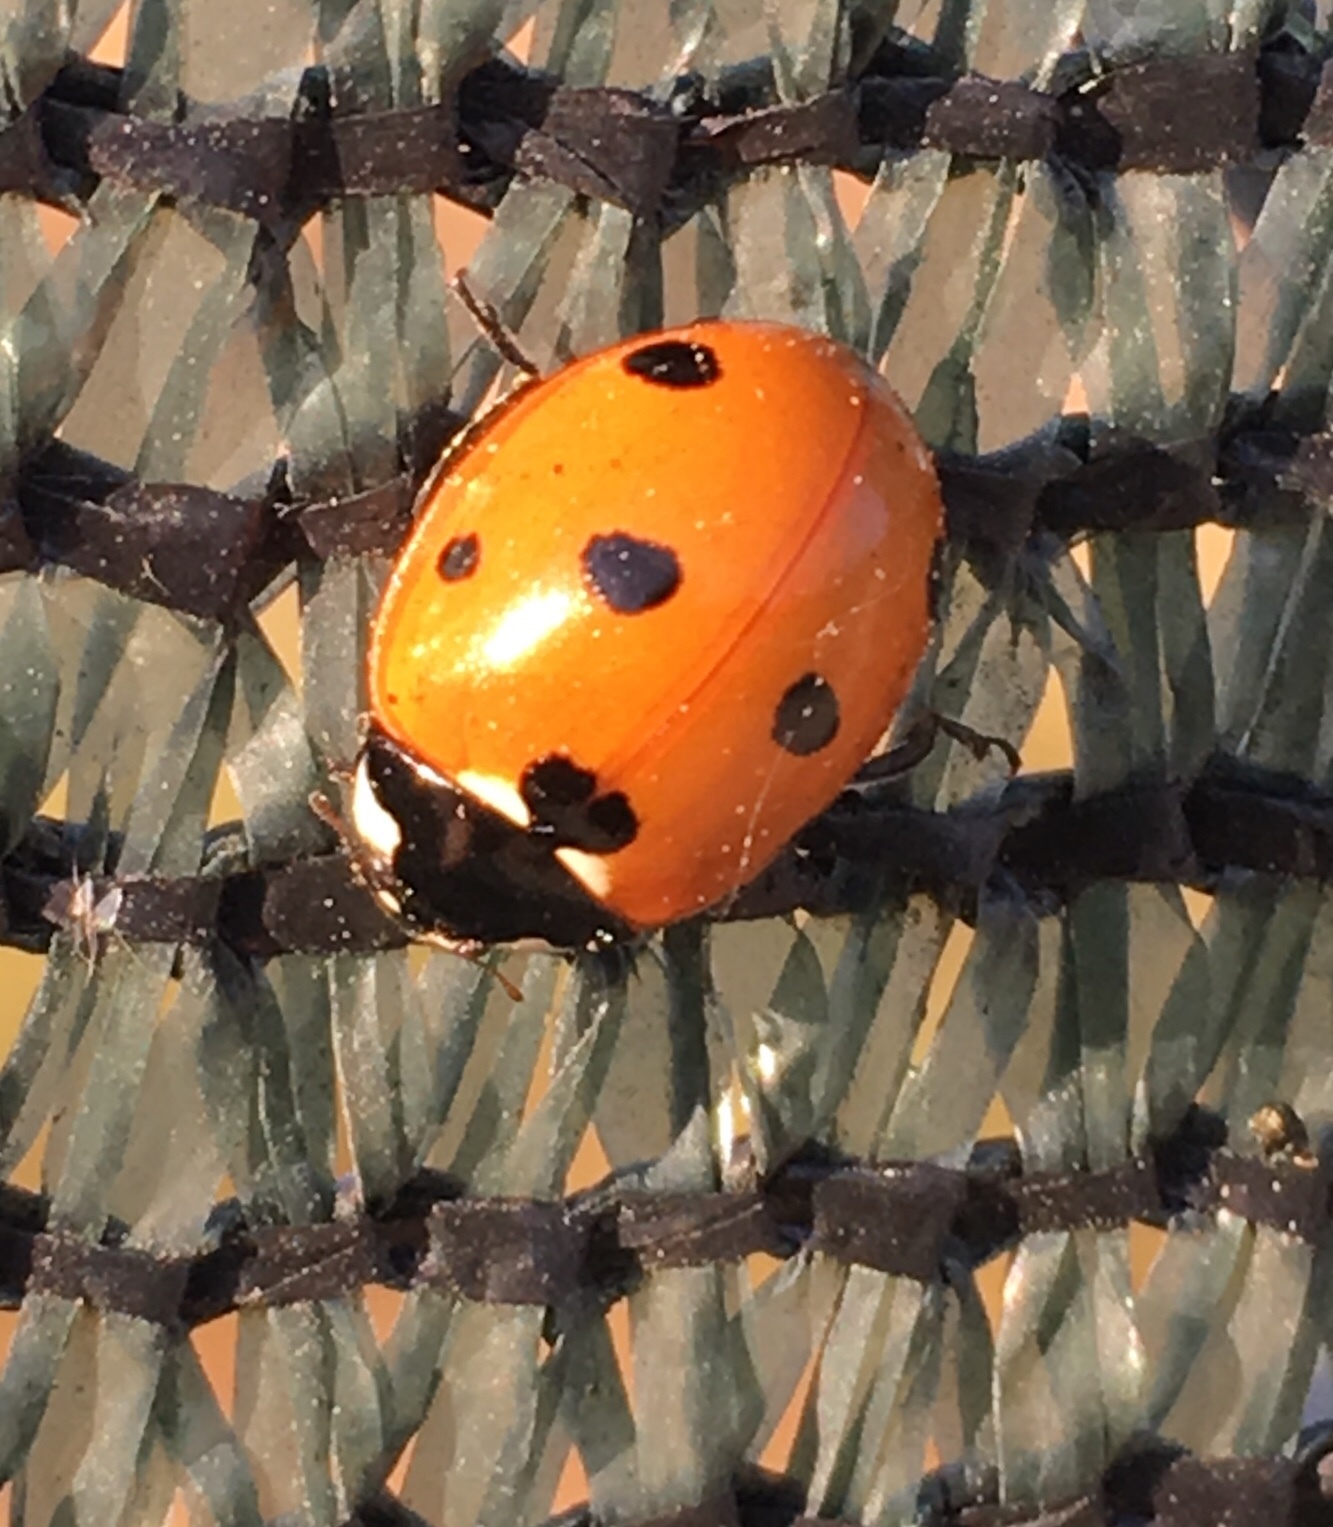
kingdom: Animalia
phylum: Arthropoda
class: Insecta
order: Coleoptera
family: Coccinellidae
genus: Coccinella
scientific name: Coccinella septempunctata
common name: Sevenspotted lady beetle
